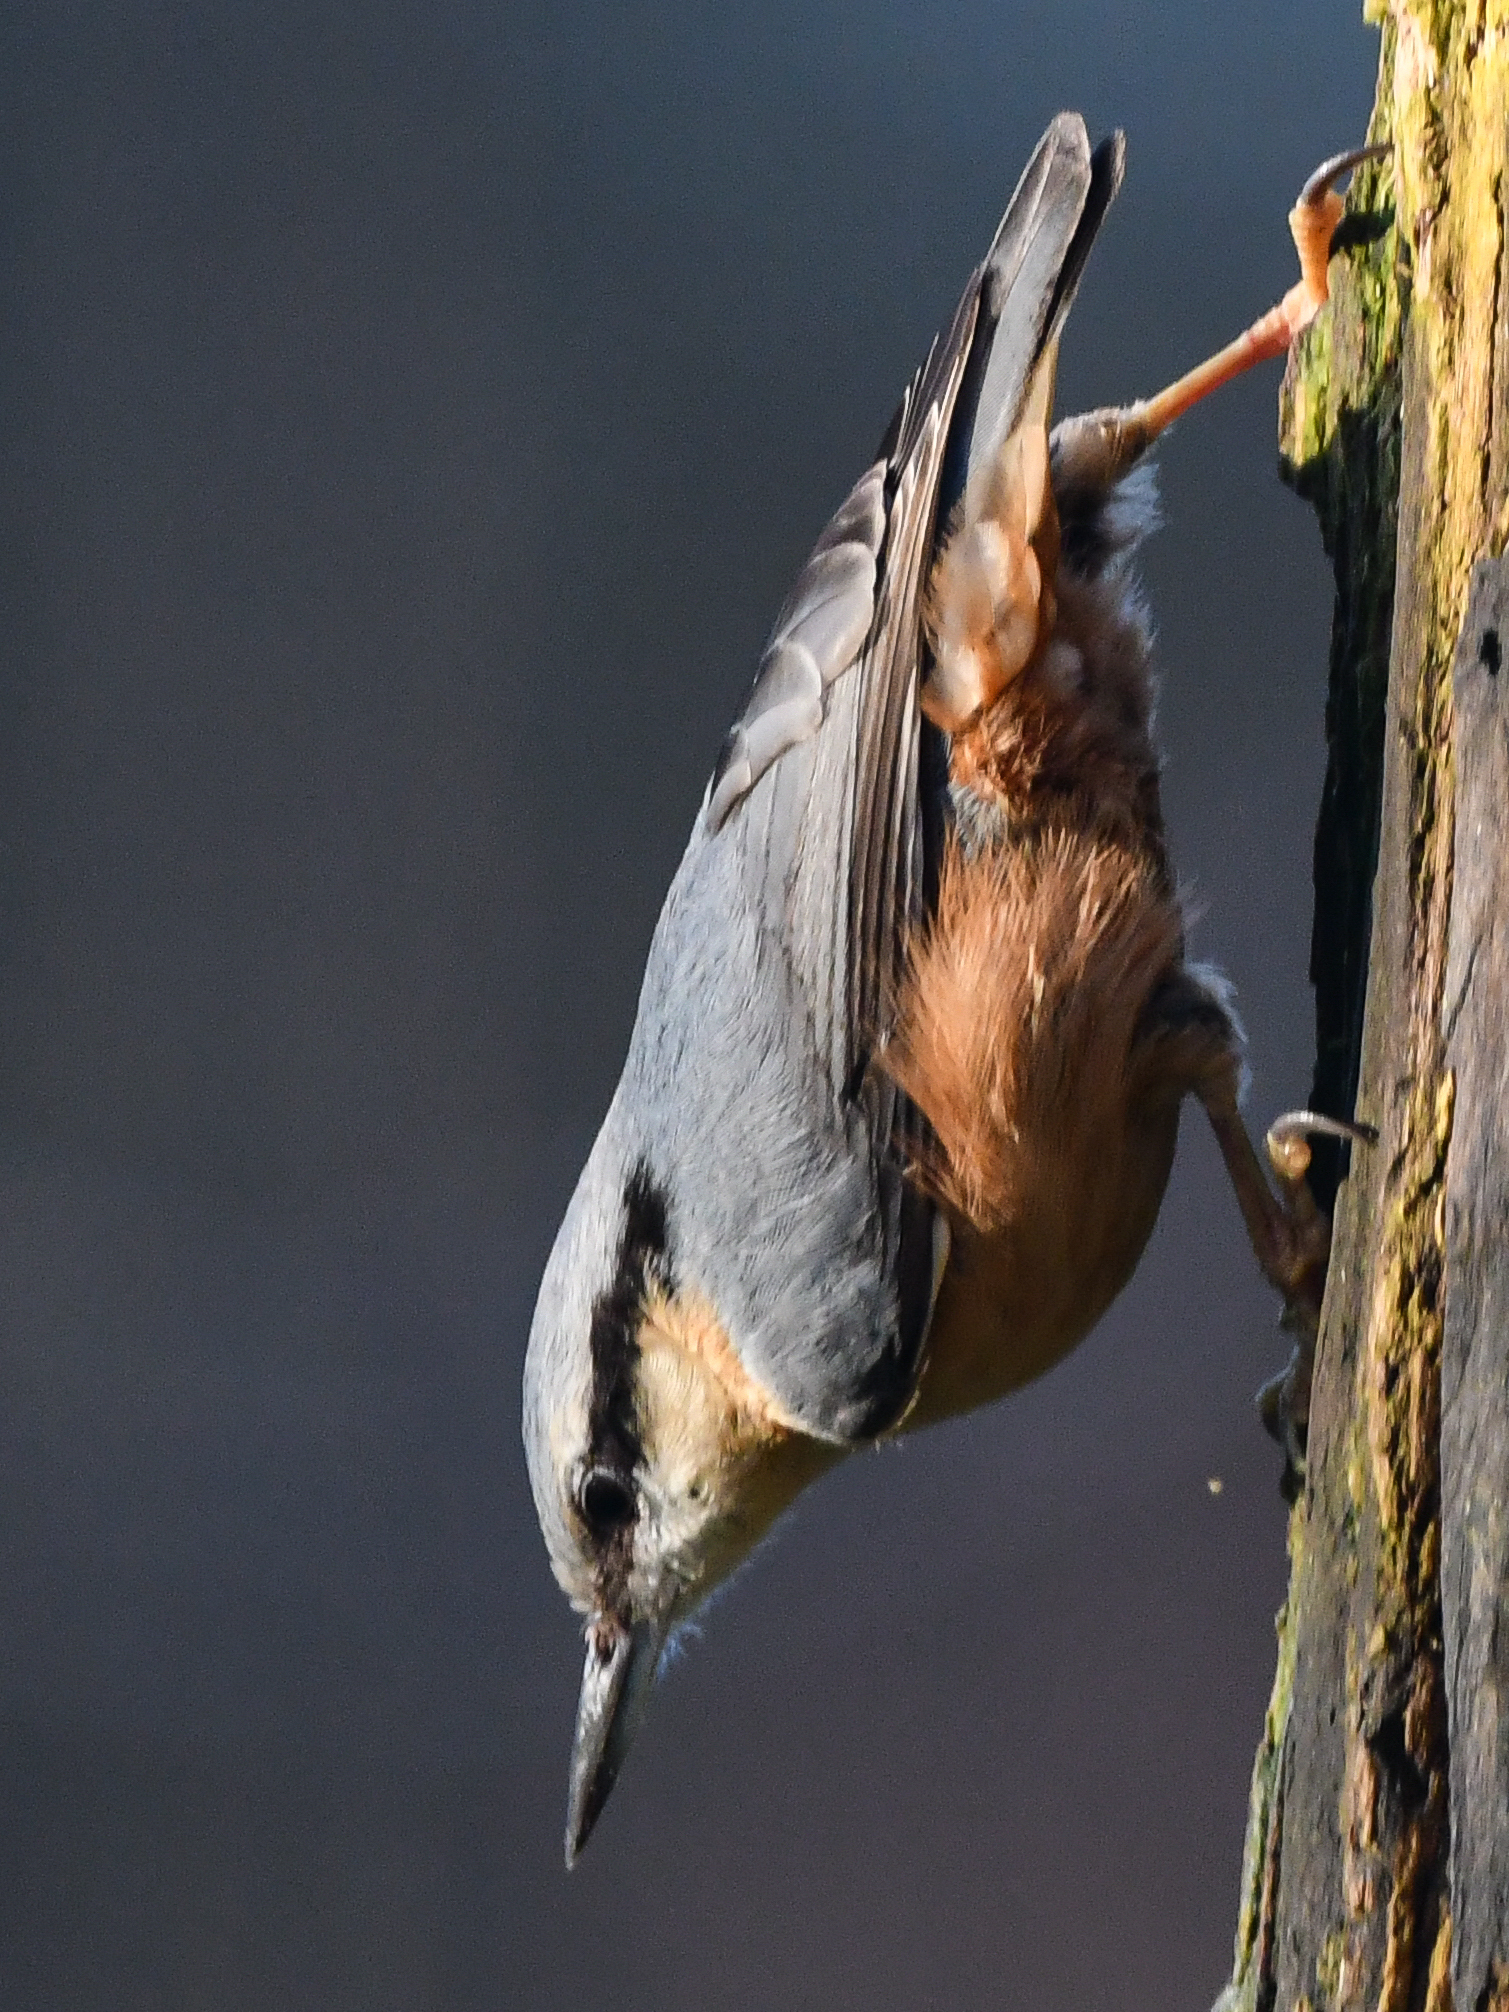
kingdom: Animalia
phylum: Chordata
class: Aves
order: Passeriformes
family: Sittidae
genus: Sitta
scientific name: Sitta europaea
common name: Eurasian nuthatch
